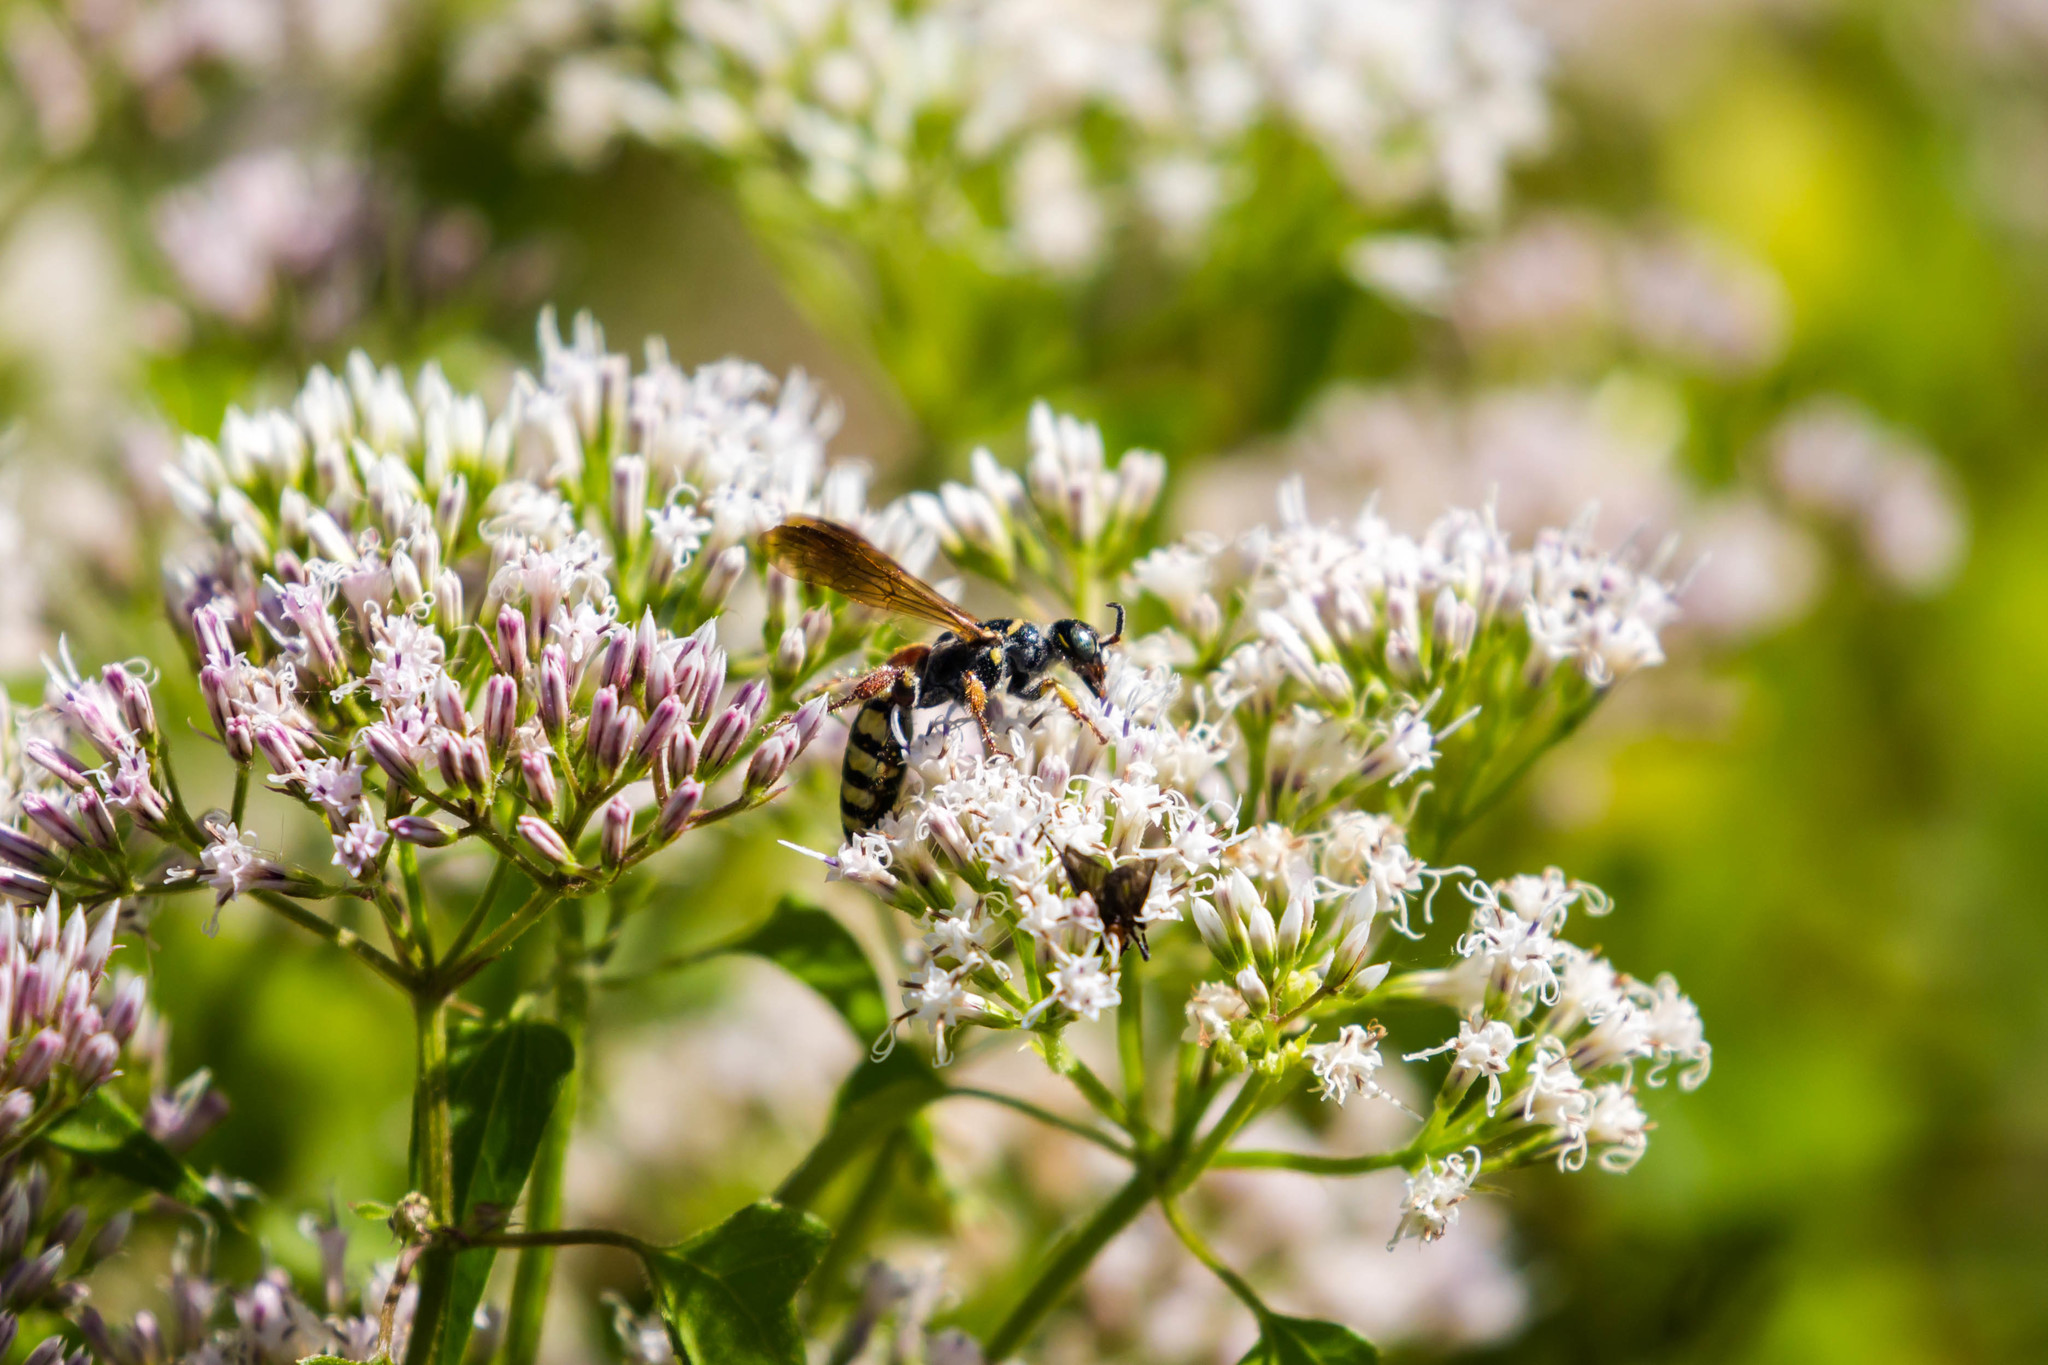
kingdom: Animalia
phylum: Arthropoda
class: Insecta
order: Hymenoptera
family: Tiphiidae
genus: Myzinum
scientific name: Myzinum carolinianum
